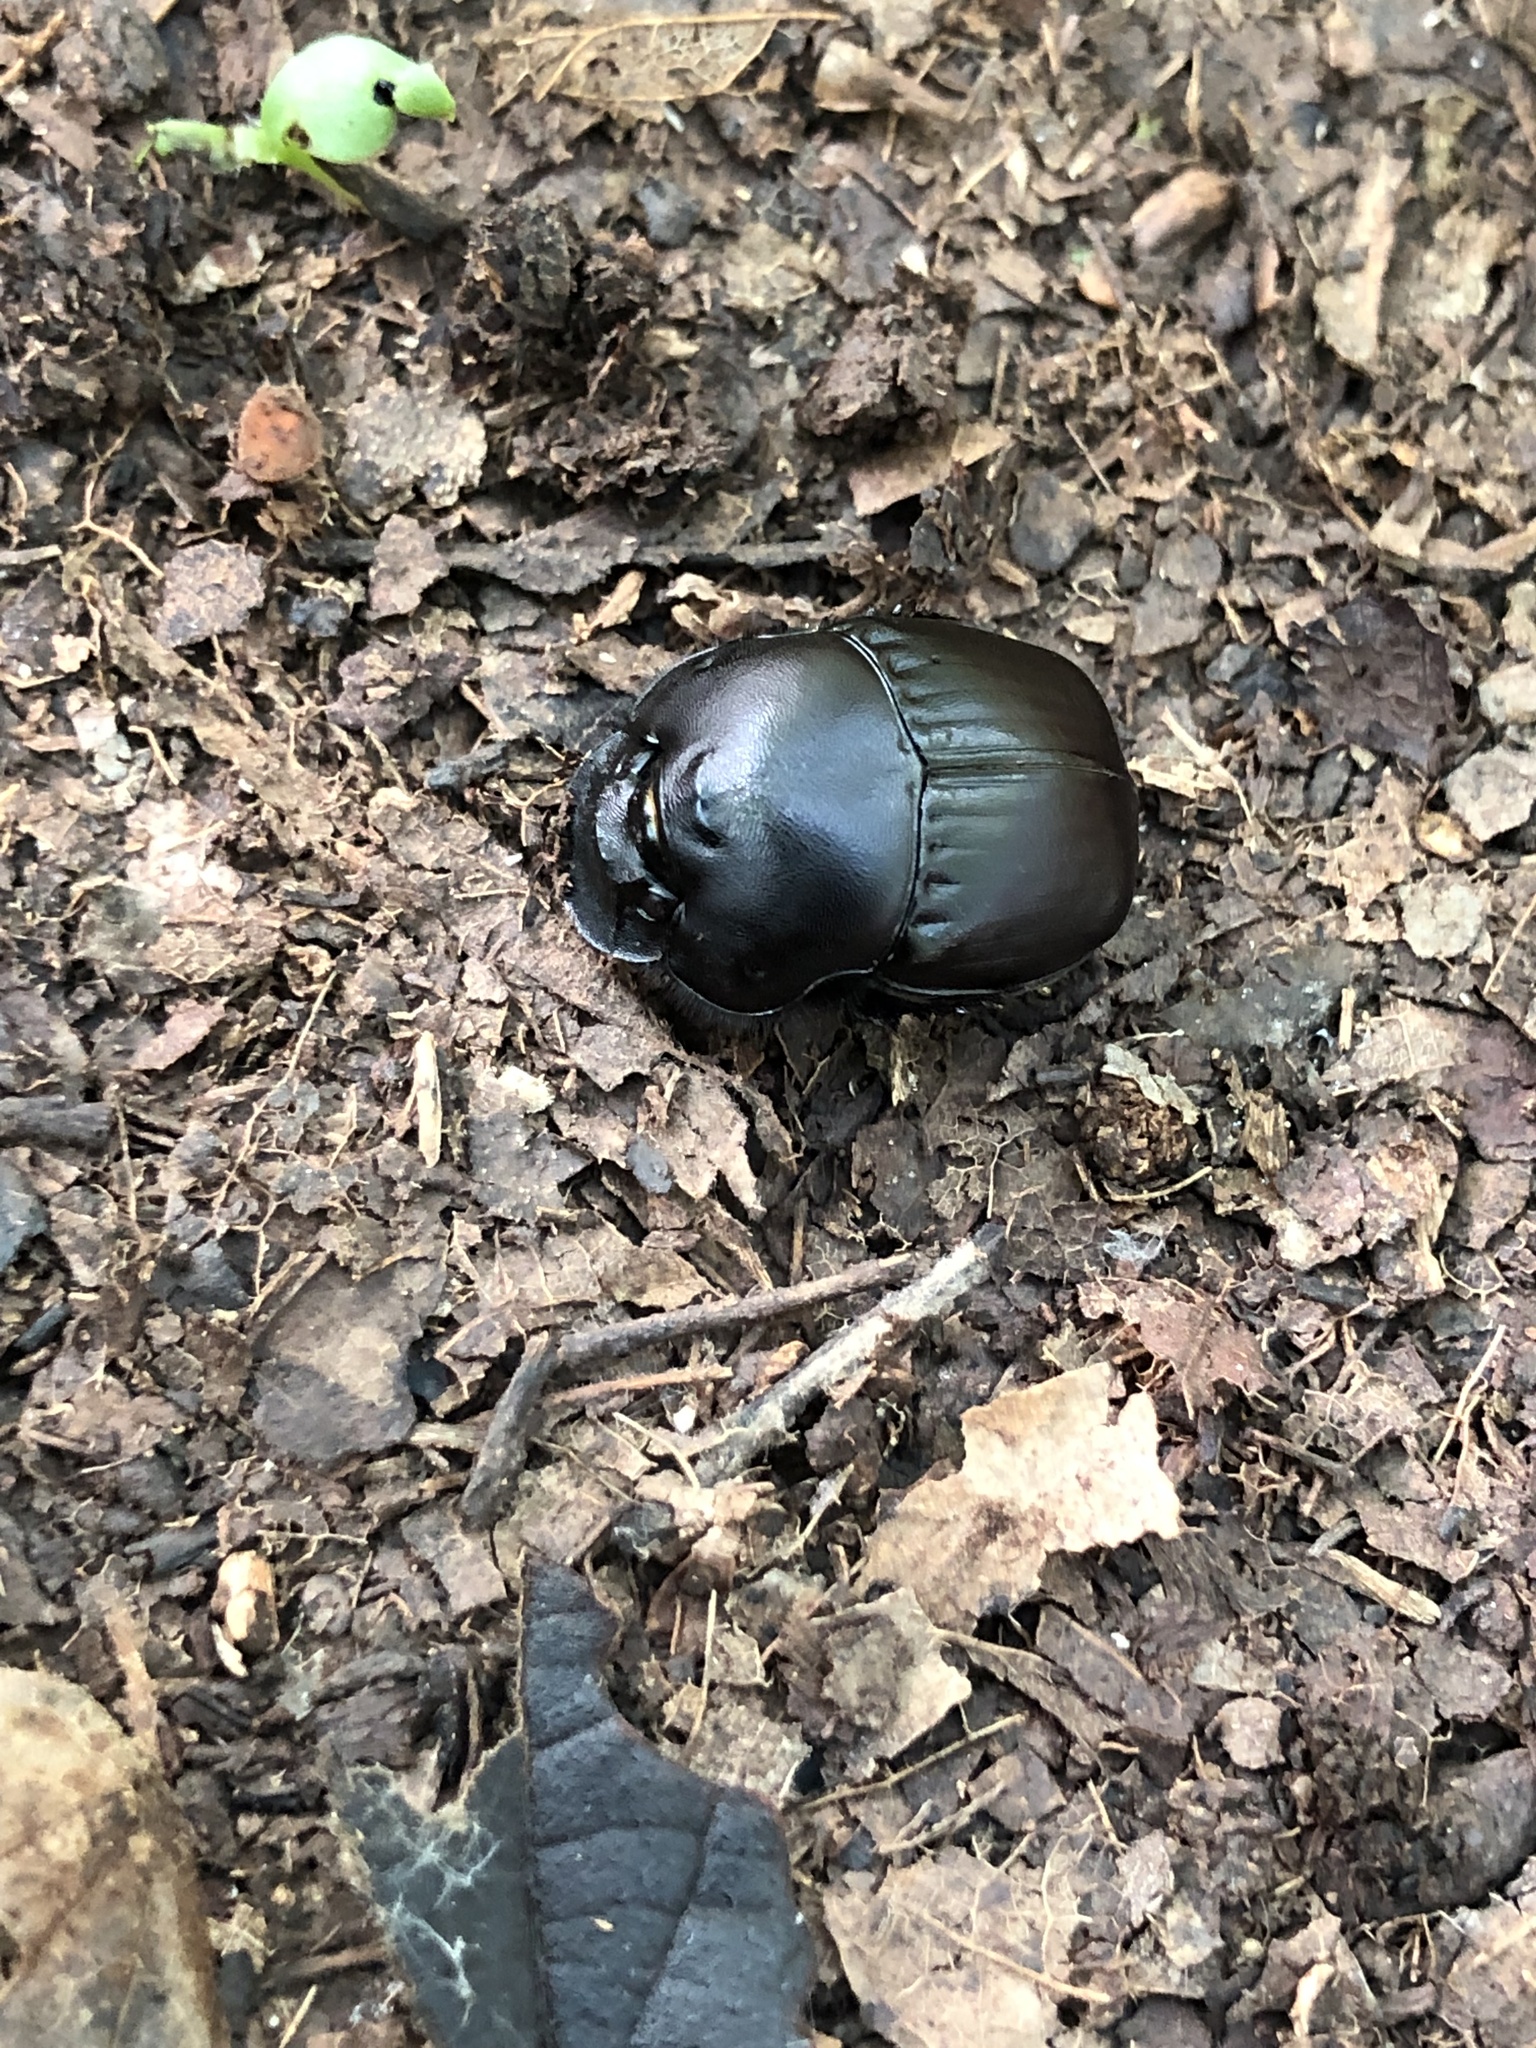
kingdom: Animalia
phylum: Arthropoda
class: Insecta
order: Coleoptera
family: Scarabaeidae
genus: Phanaeus
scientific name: Phanaeus texensis
